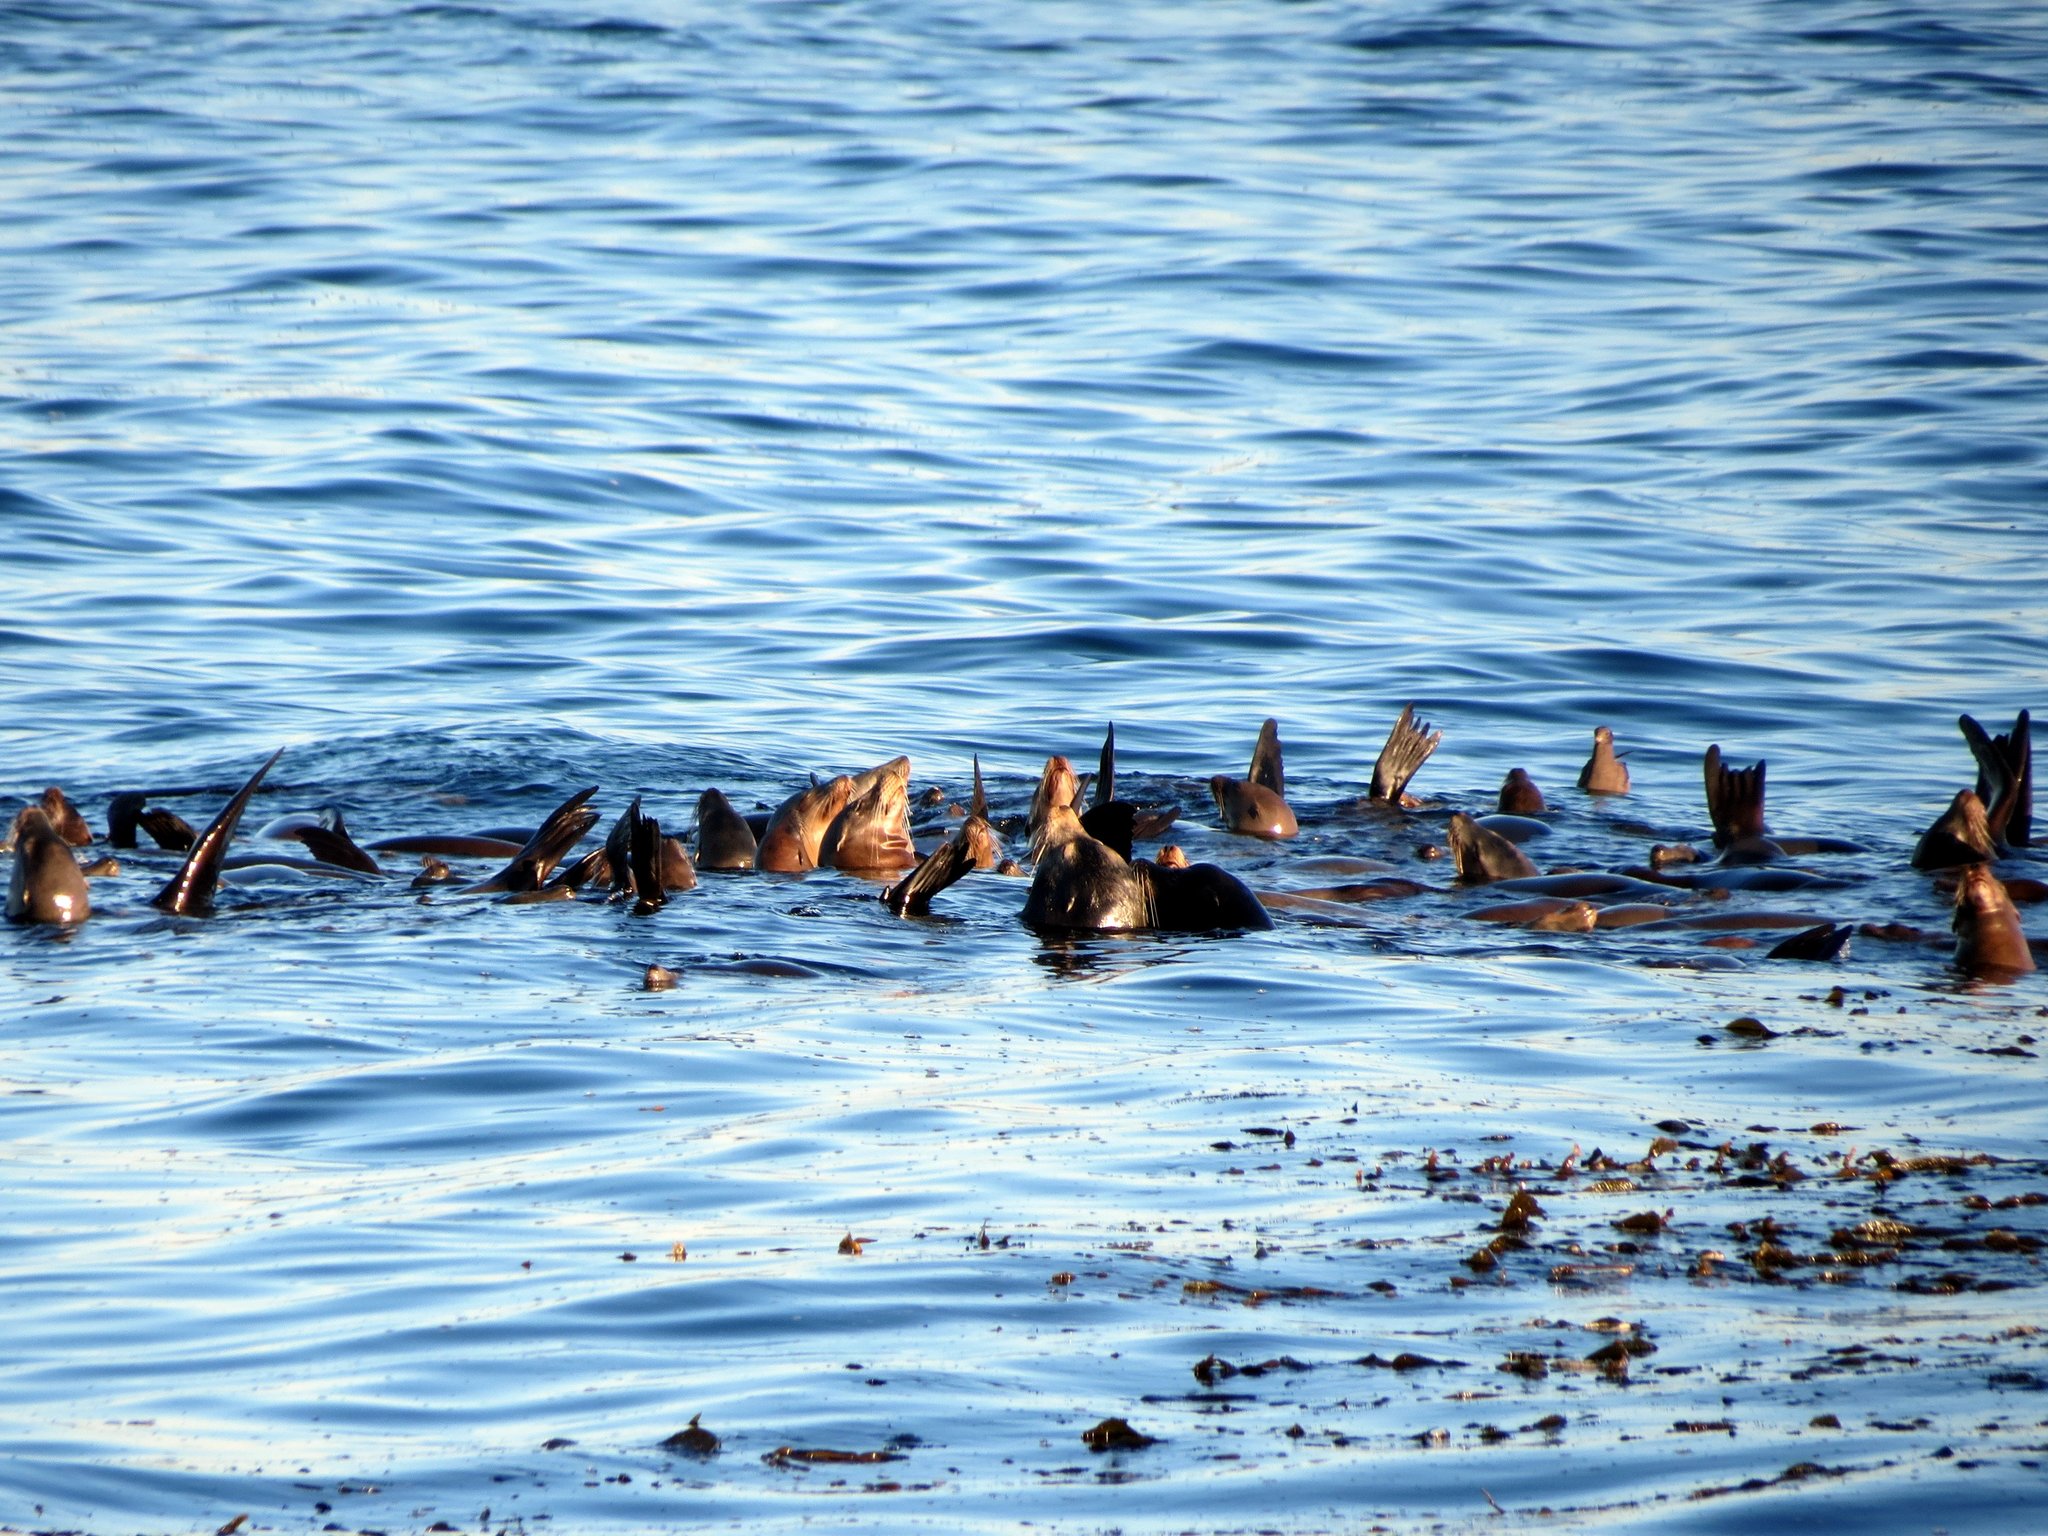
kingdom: Animalia
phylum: Chordata
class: Mammalia
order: Carnivora
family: Otariidae
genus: Zalophus
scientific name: Zalophus californianus
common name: California sea lion
